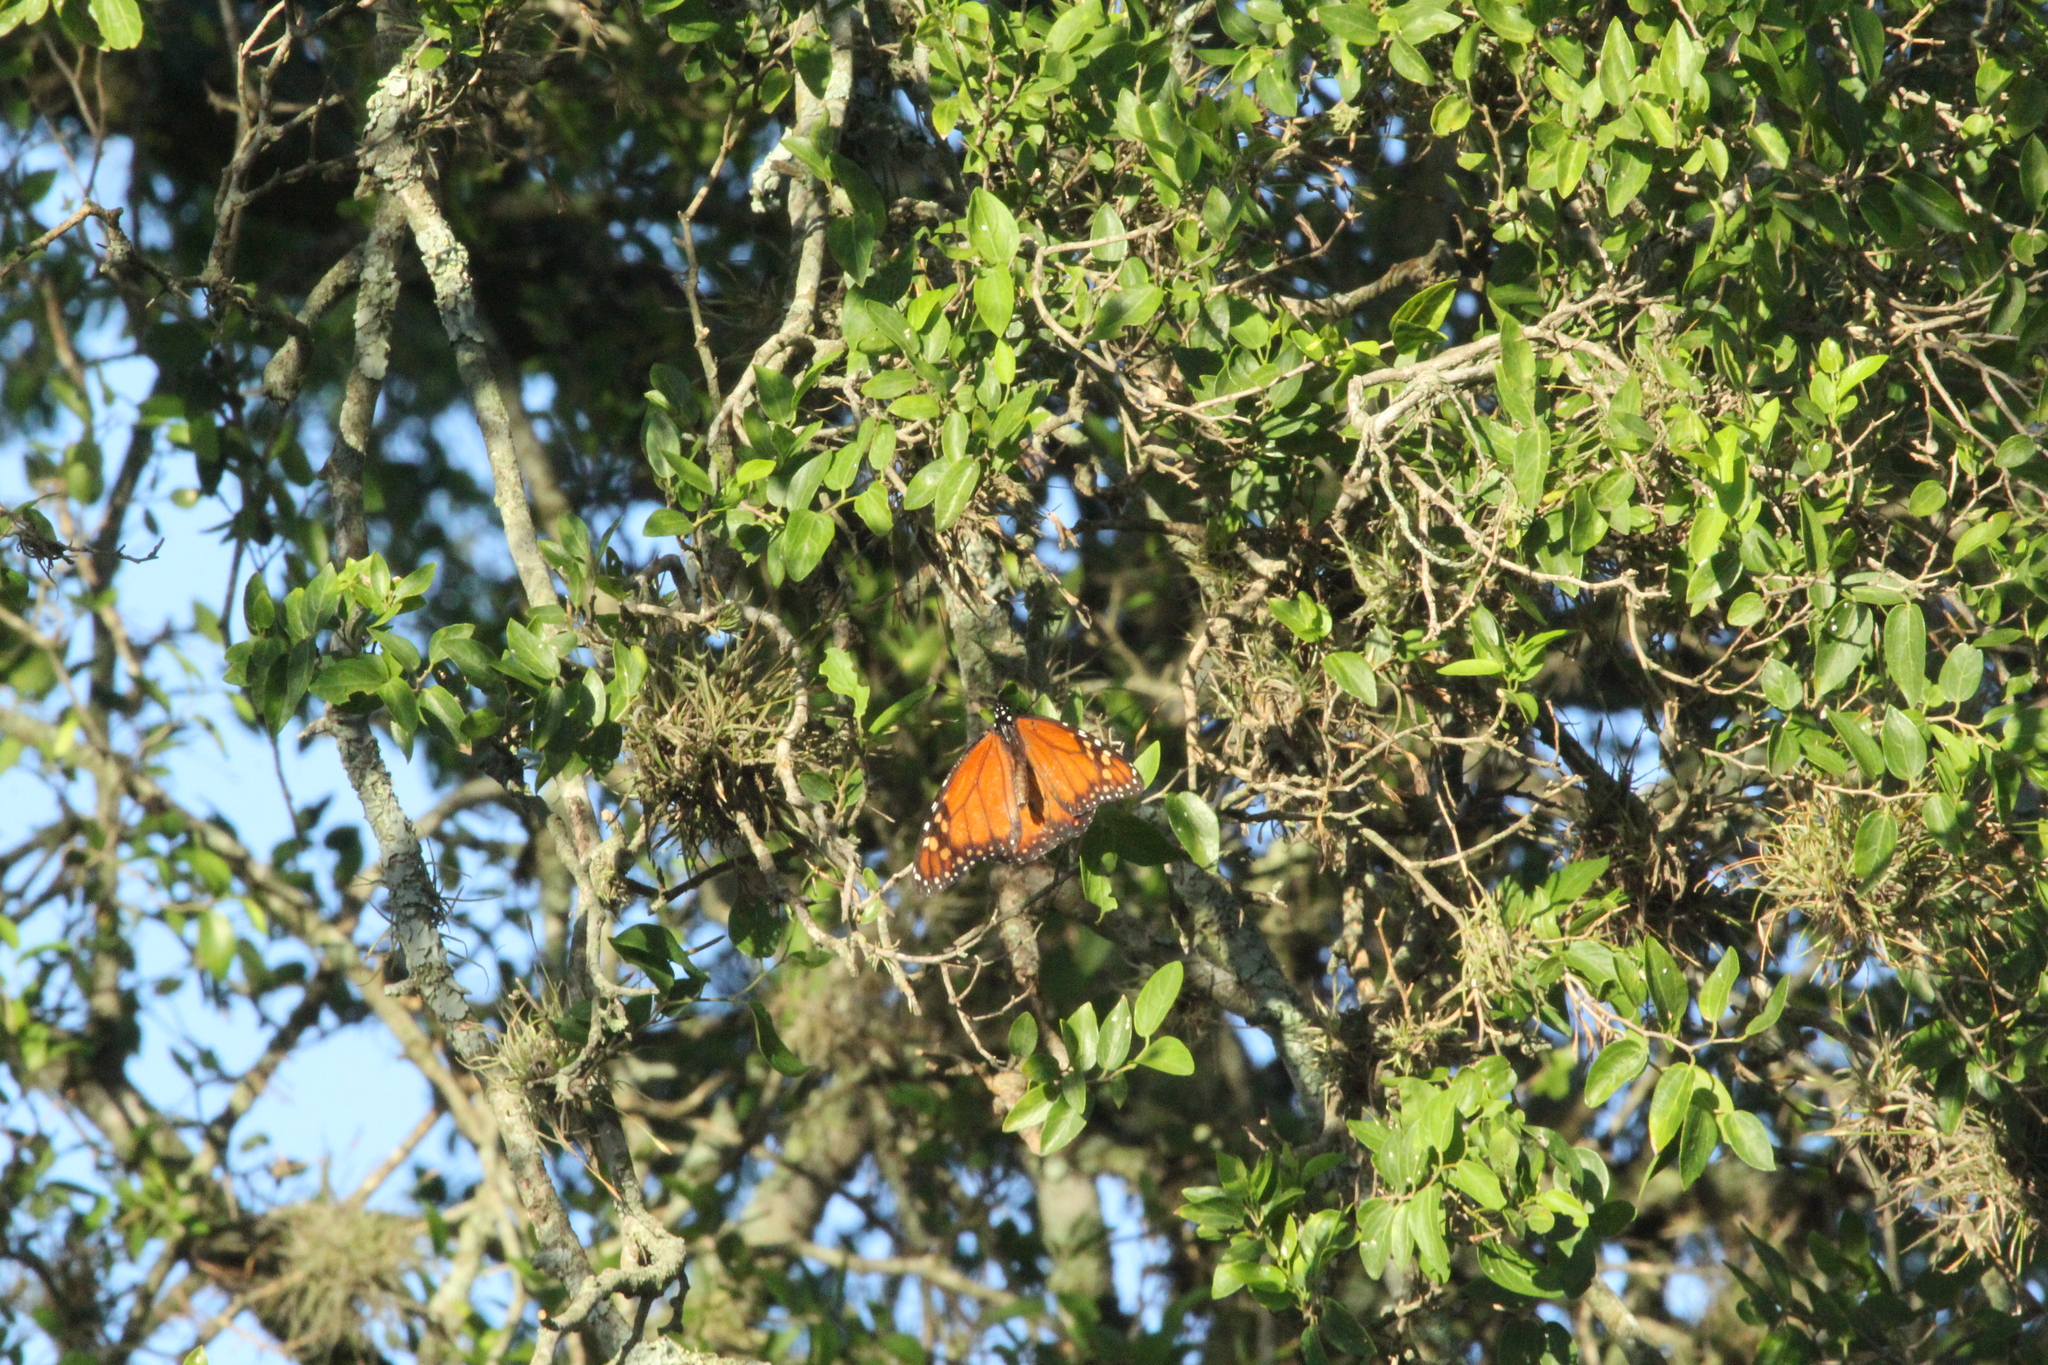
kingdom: Animalia
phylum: Arthropoda
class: Insecta
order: Lepidoptera
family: Nymphalidae
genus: Danaus
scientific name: Danaus erippus
